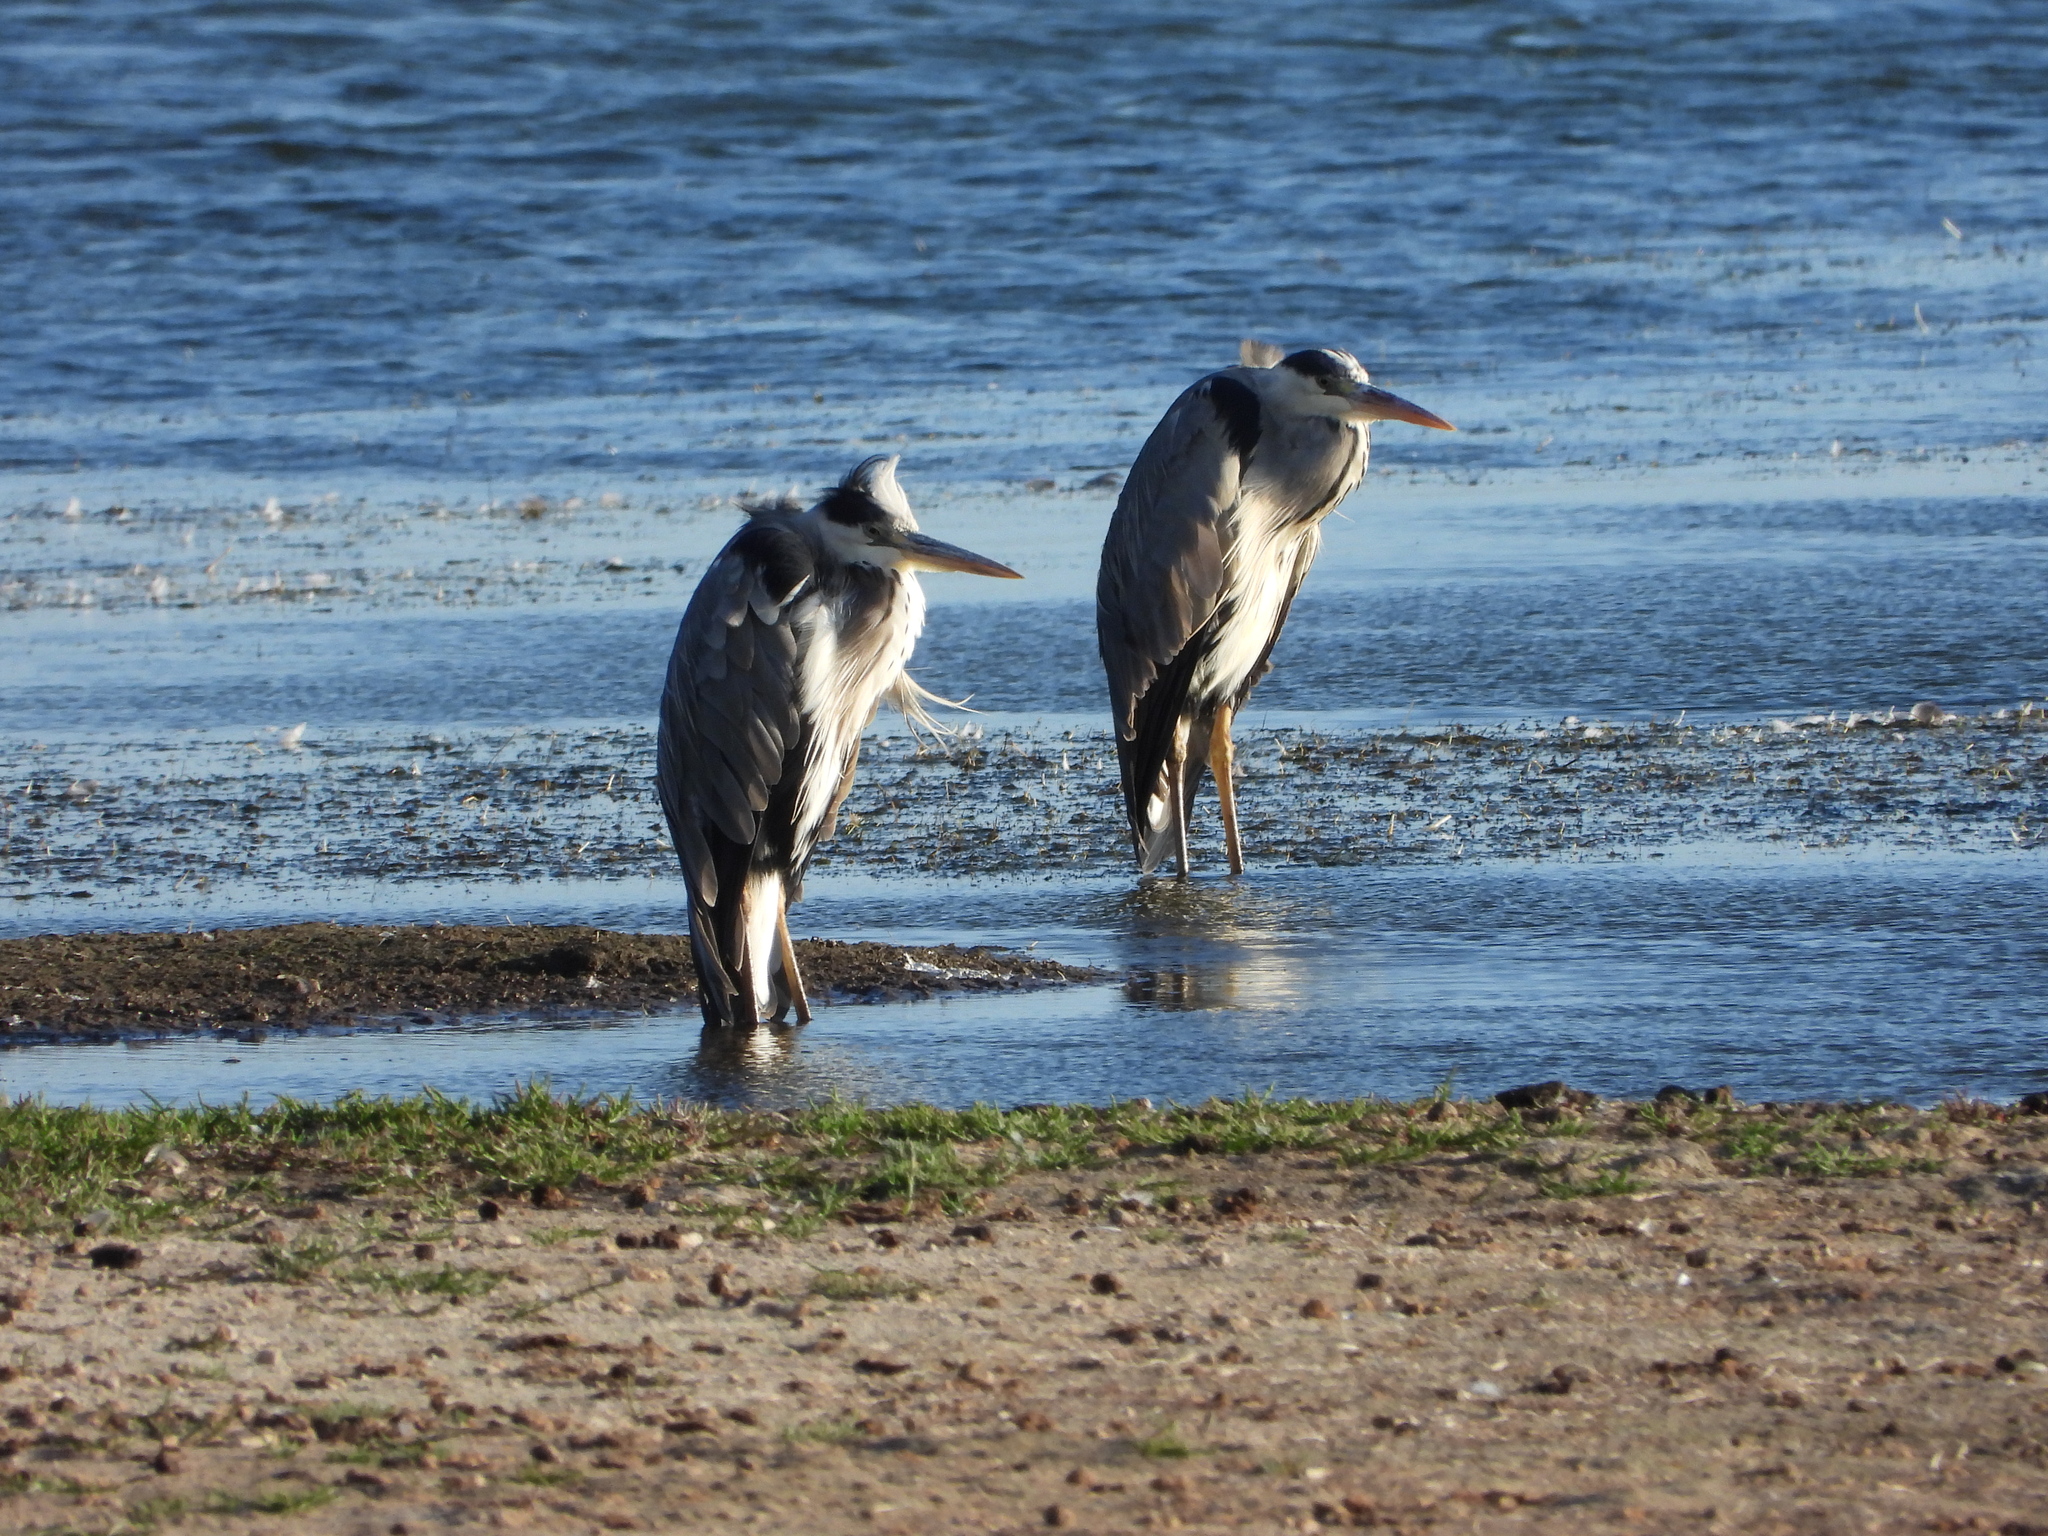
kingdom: Animalia
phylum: Chordata
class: Aves
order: Pelecaniformes
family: Ardeidae
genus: Ardea
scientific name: Ardea cinerea
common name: Grey heron
